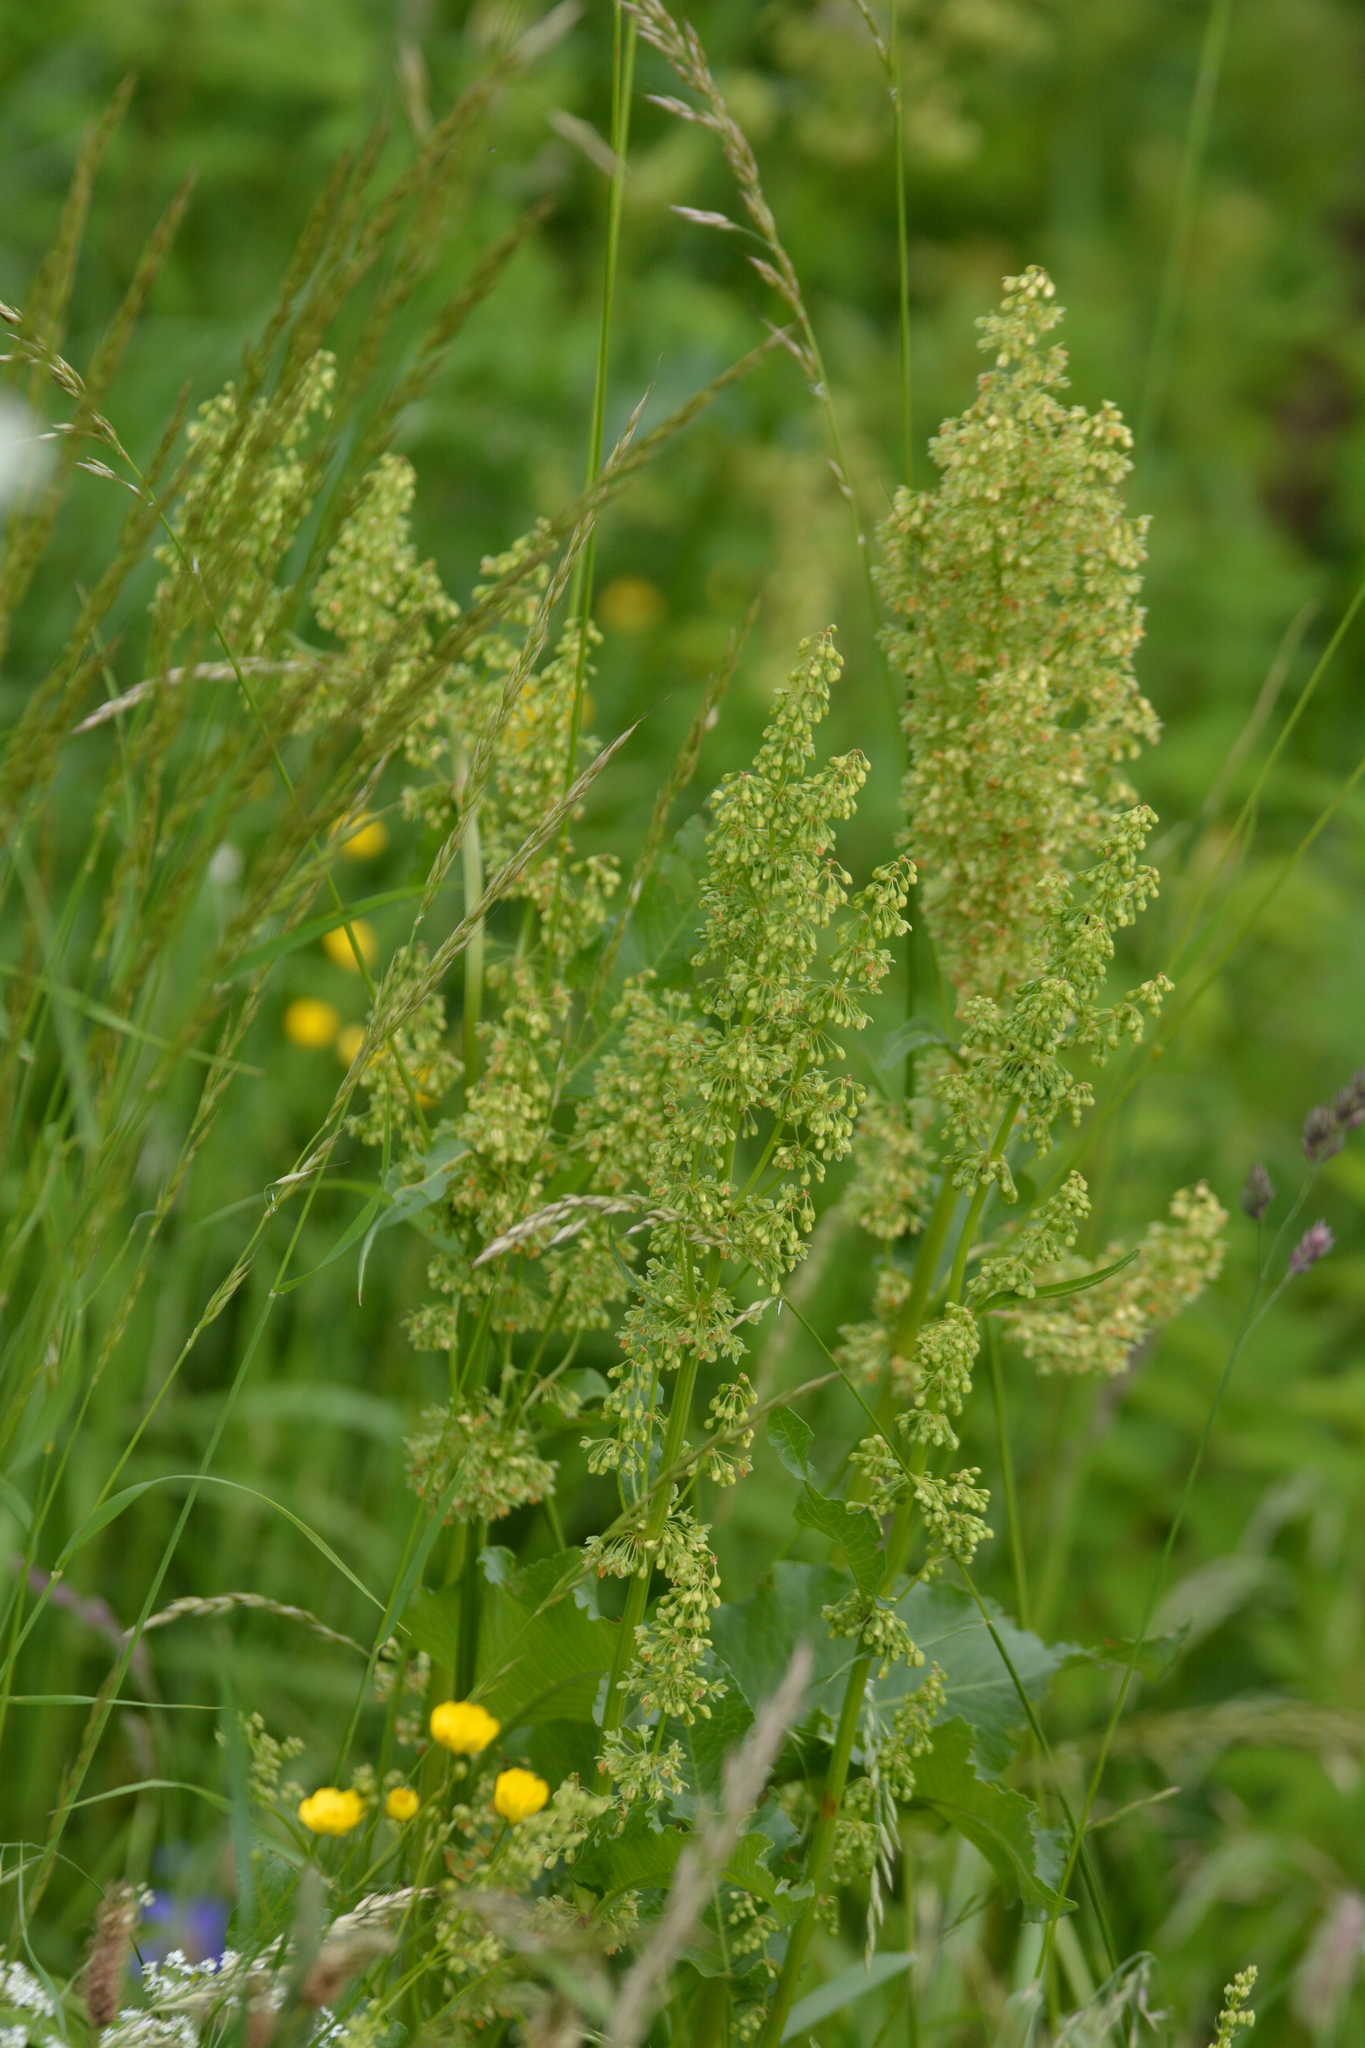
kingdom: Plantae
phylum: Tracheophyta
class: Magnoliopsida
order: Caryophyllales
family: Polygonaceae
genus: Rumex
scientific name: Rumex confertus
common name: Russian dock
